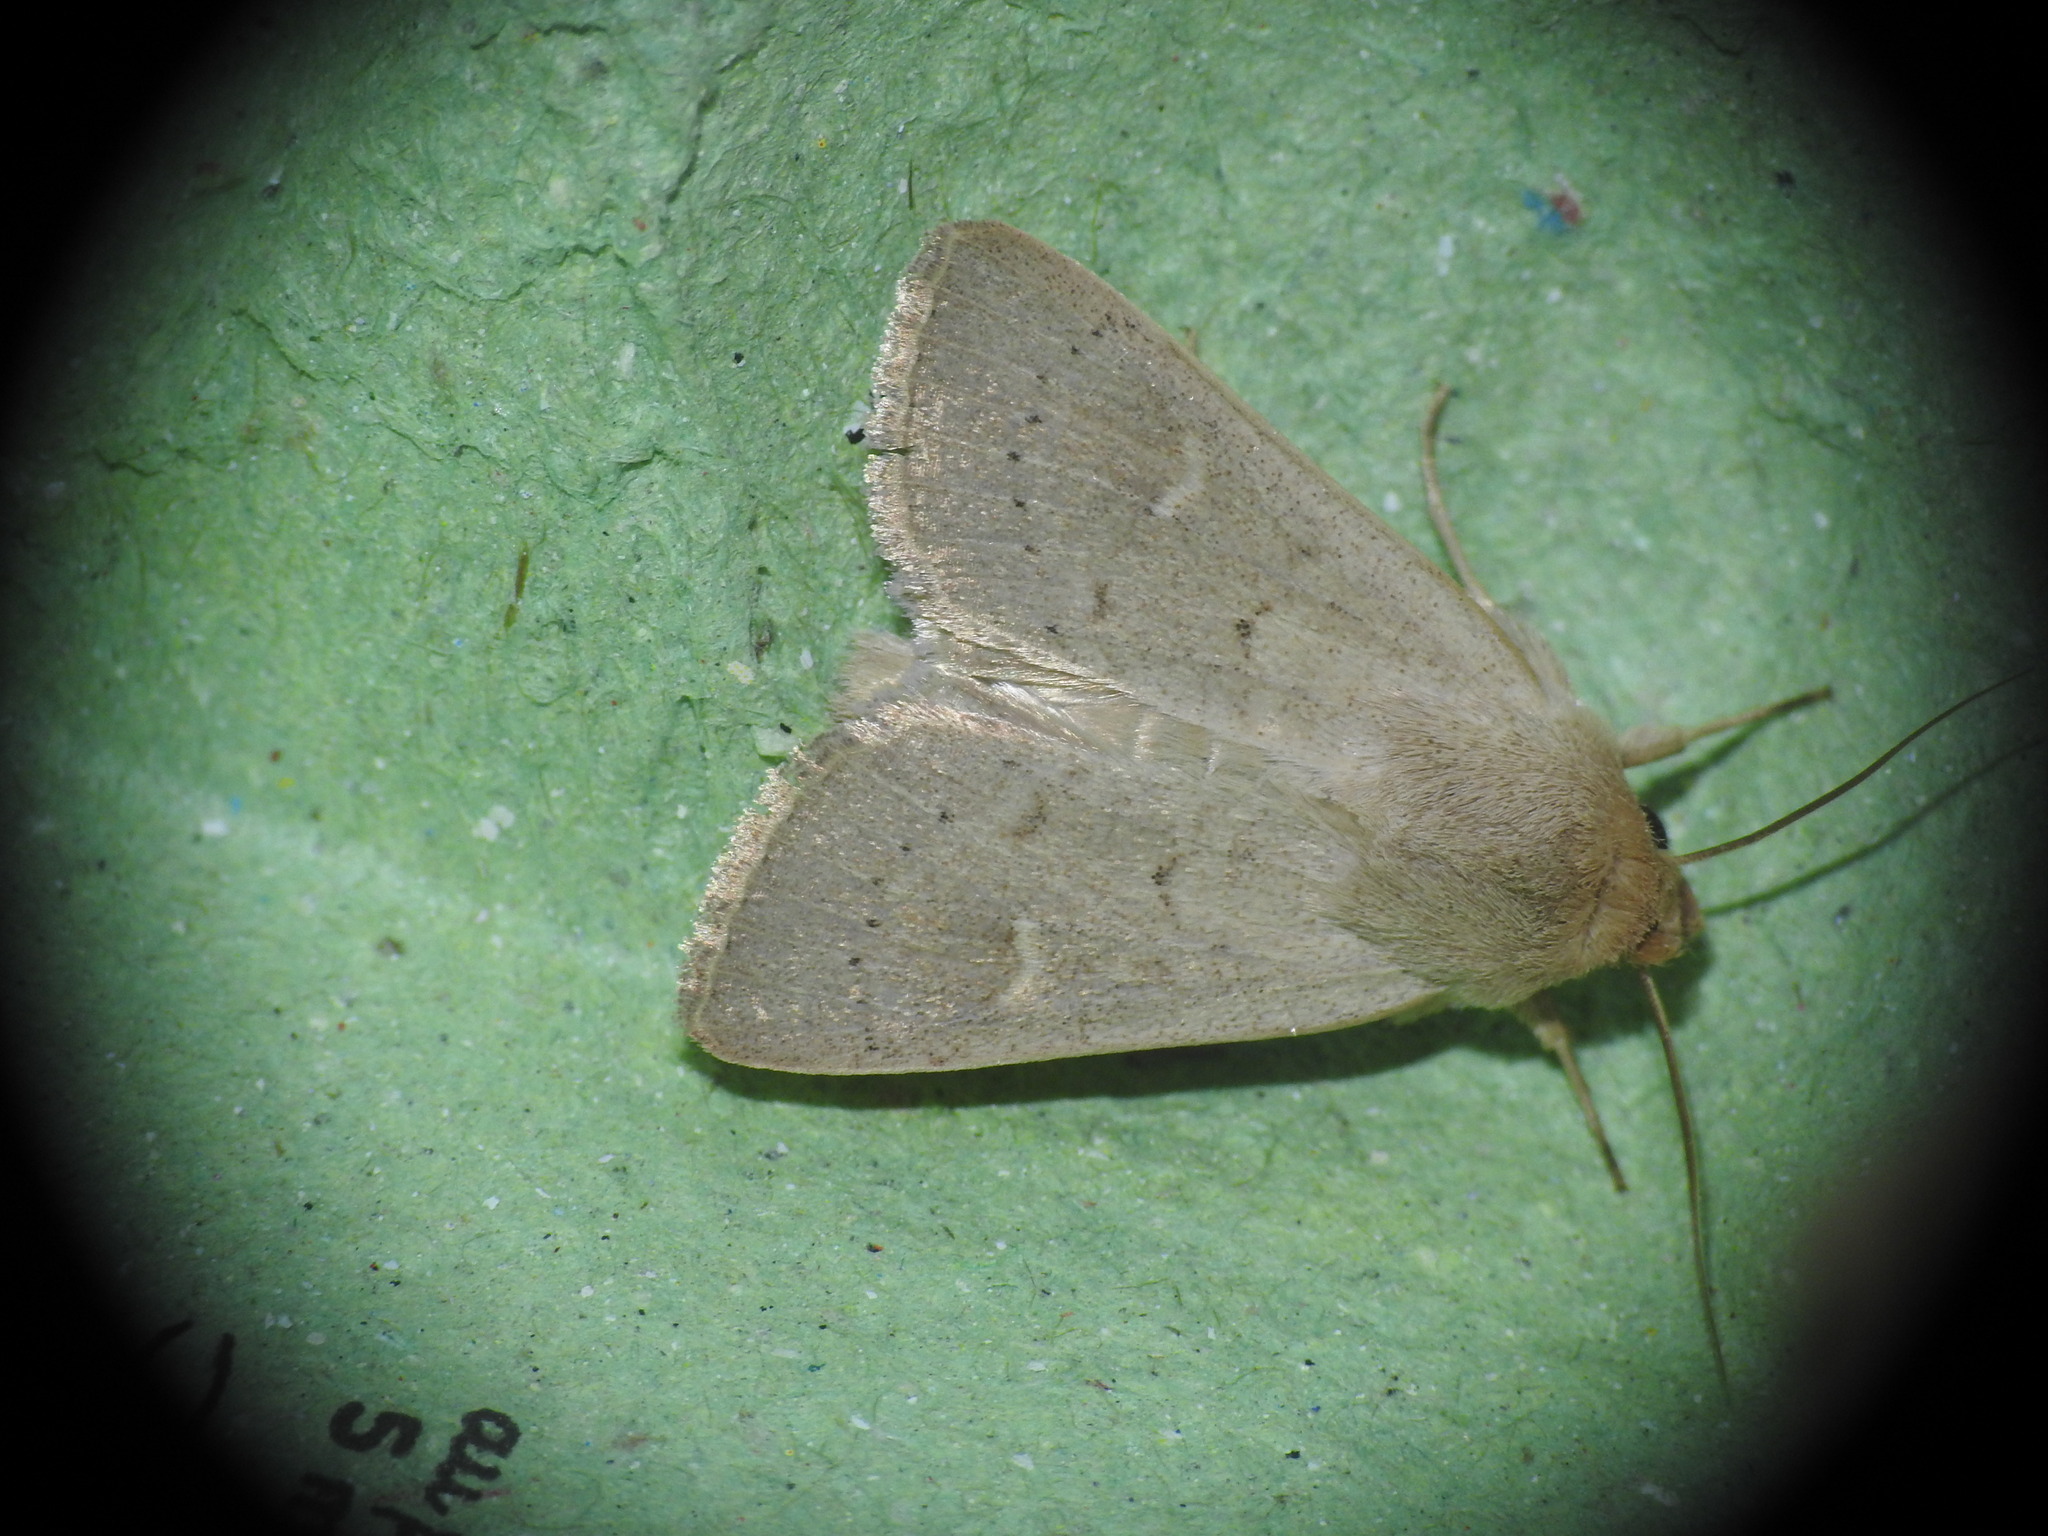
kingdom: Animalia
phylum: Arthropoda
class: Insecta
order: Lepidoptera
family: Noctuidae
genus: Mythimna
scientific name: Mythimna ferrago
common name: Clay
